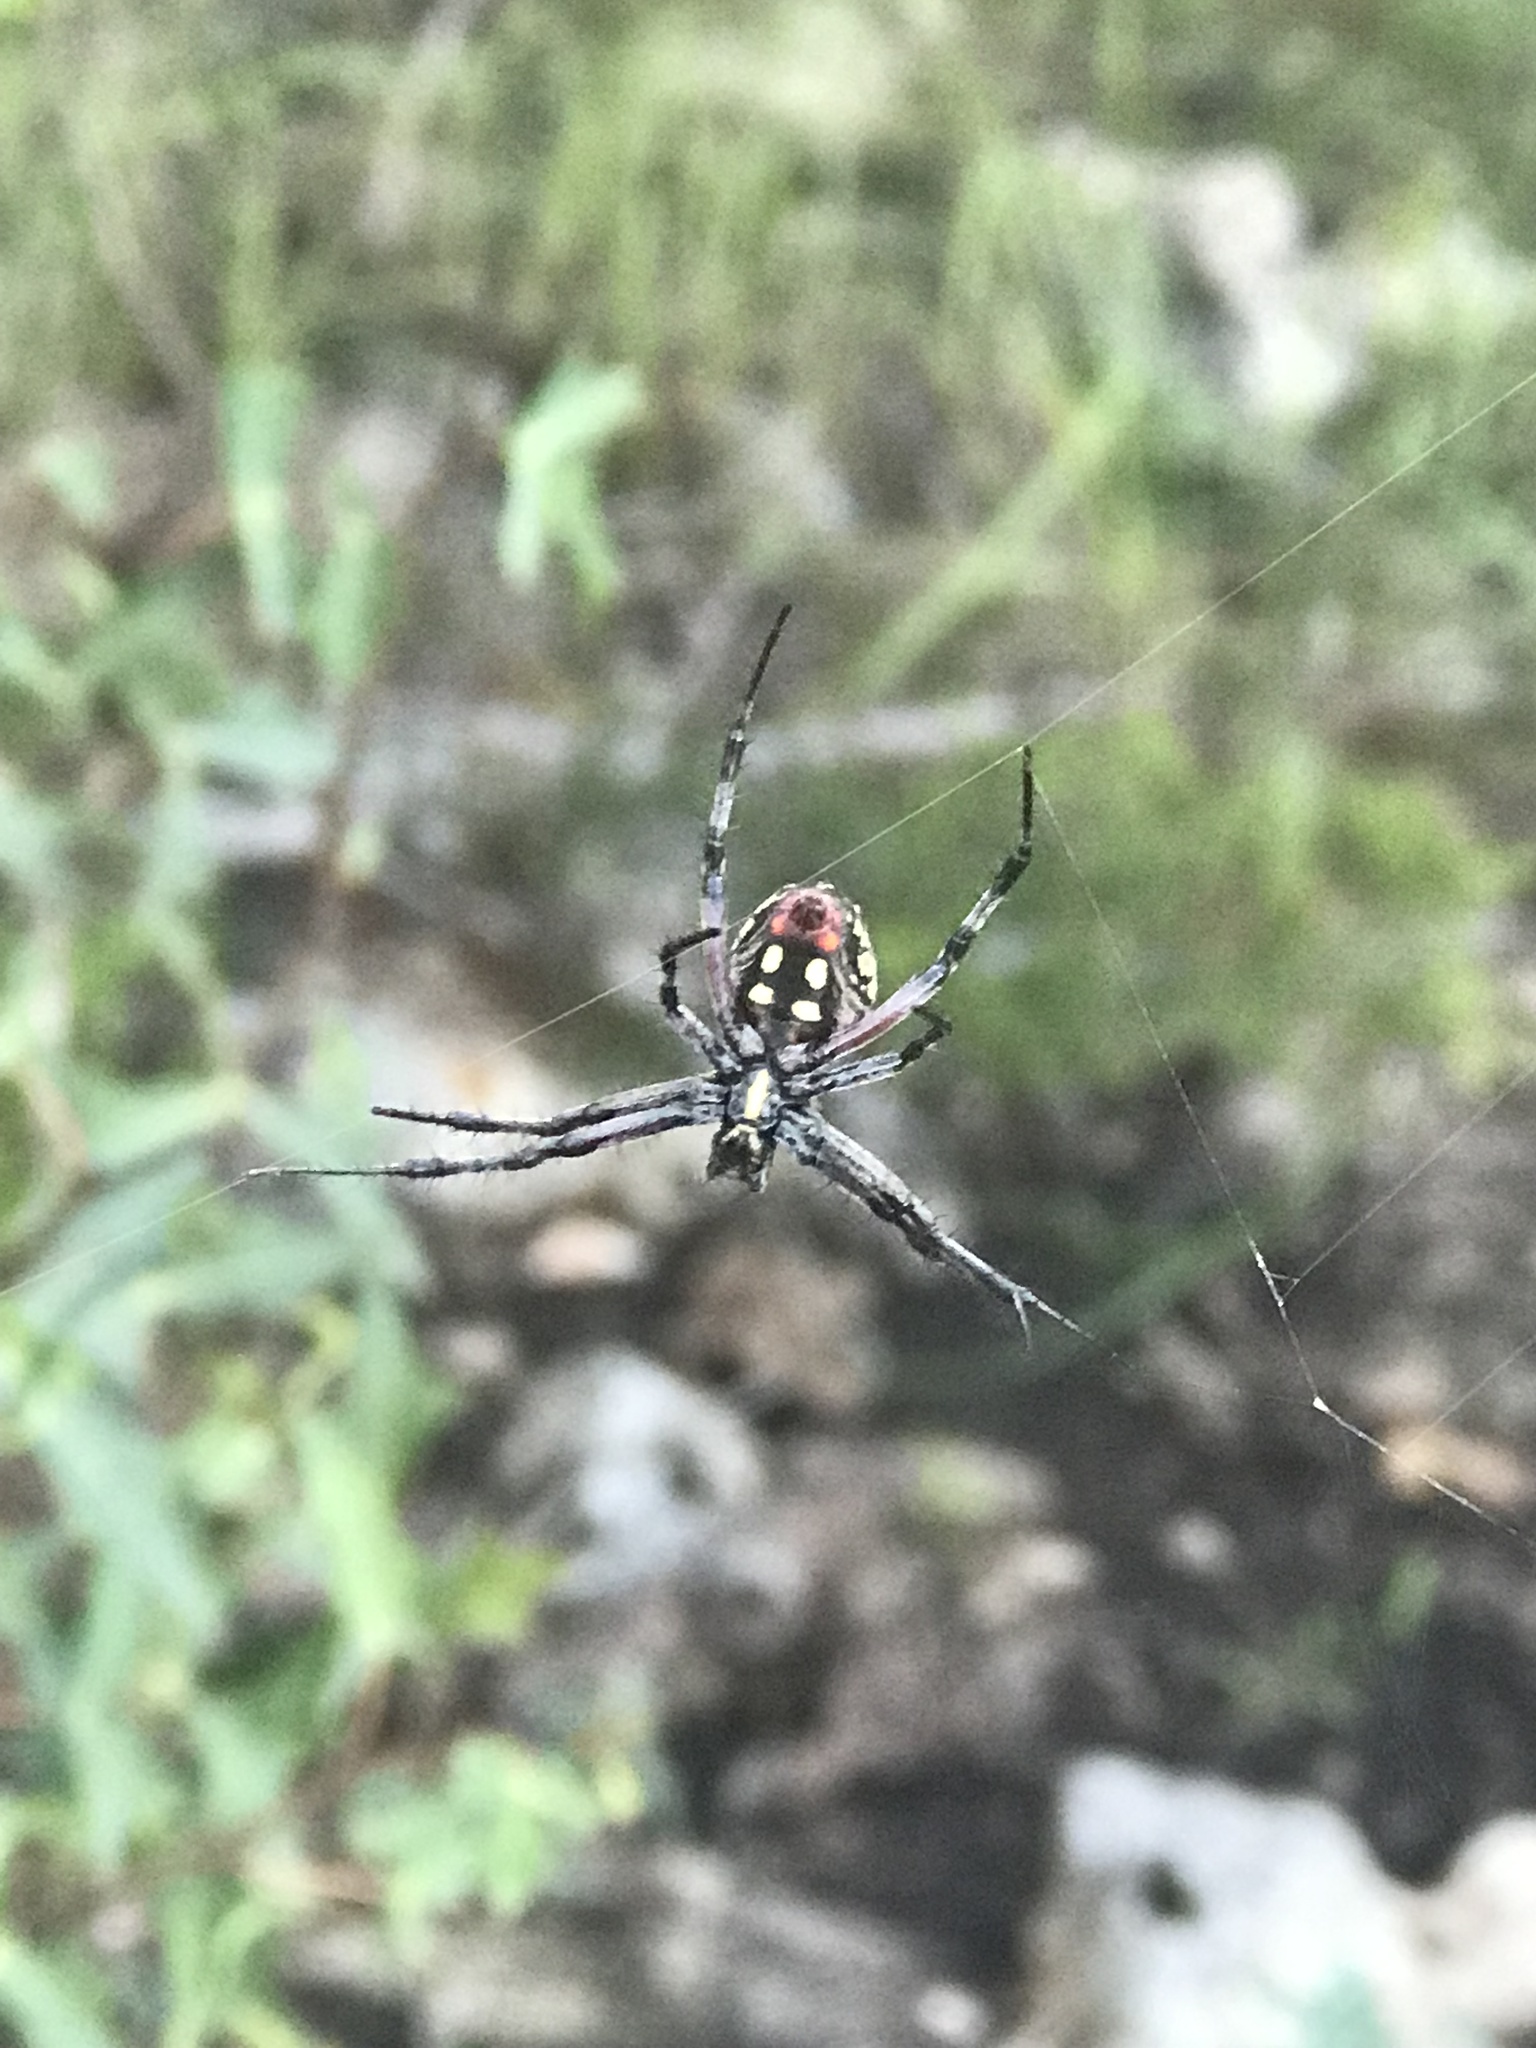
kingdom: Animalia
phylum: Arthropoda
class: Arachnida
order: Araneae
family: Araneidae
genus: Neoscona
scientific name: Neoscona oaxacensis
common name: Orb weavers
